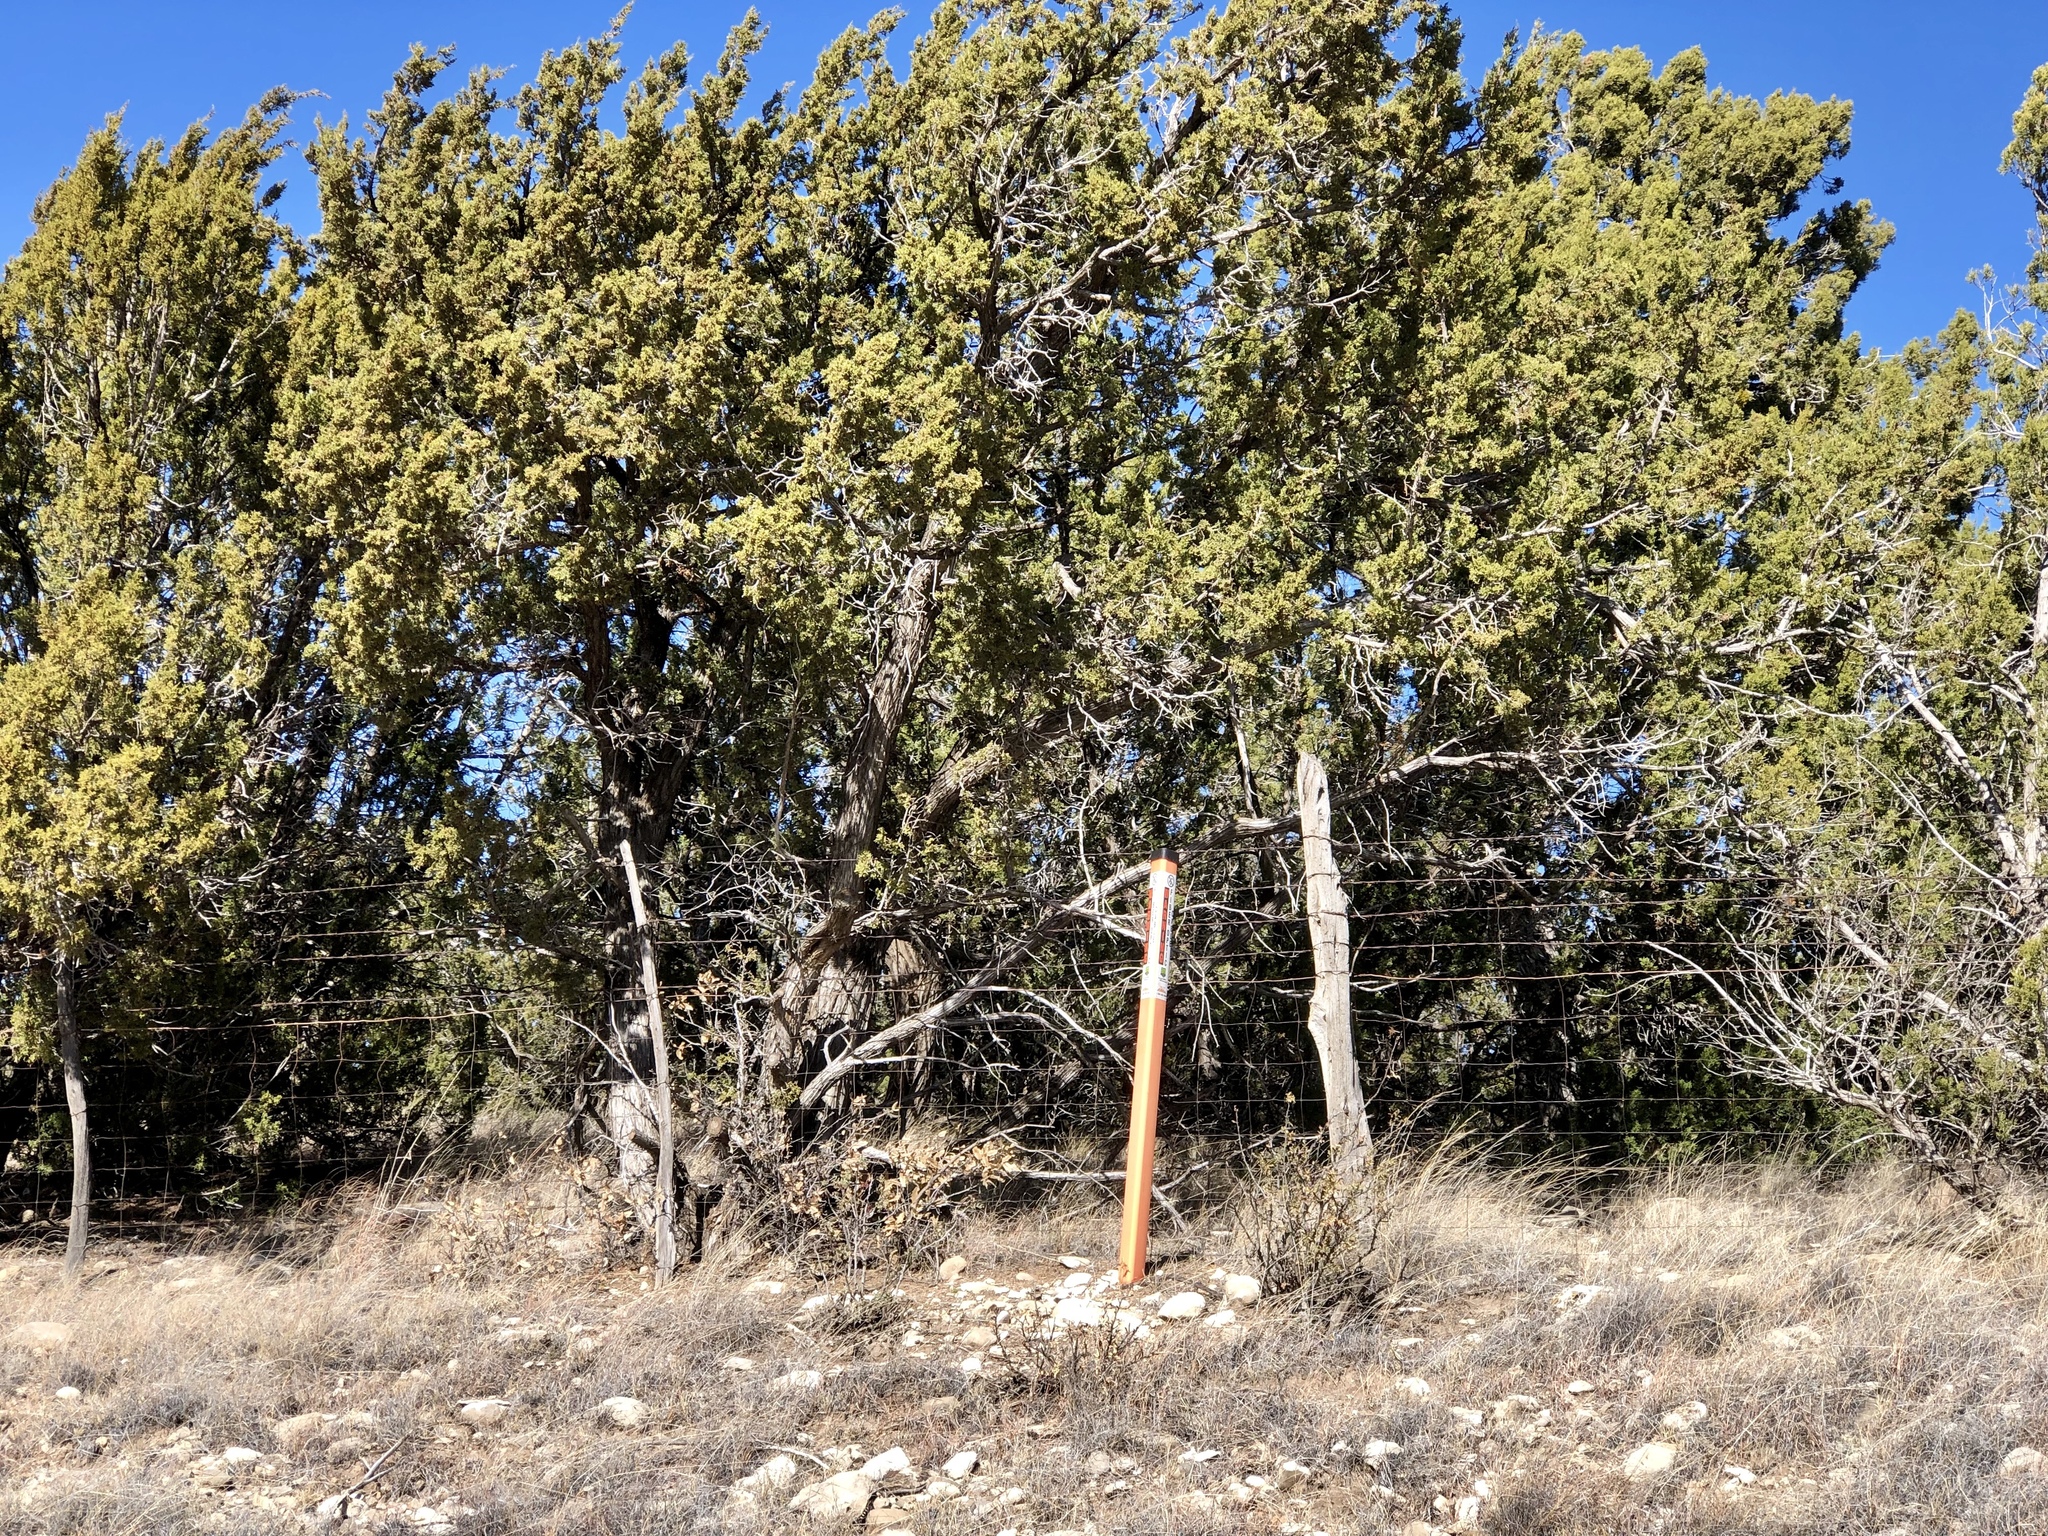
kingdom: Plantae
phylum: Tracheophyta
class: Pinopsida
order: Pinales
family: Cupressaceae
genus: Juniperus
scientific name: Juniperus monosperma
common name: One-seed juniper
